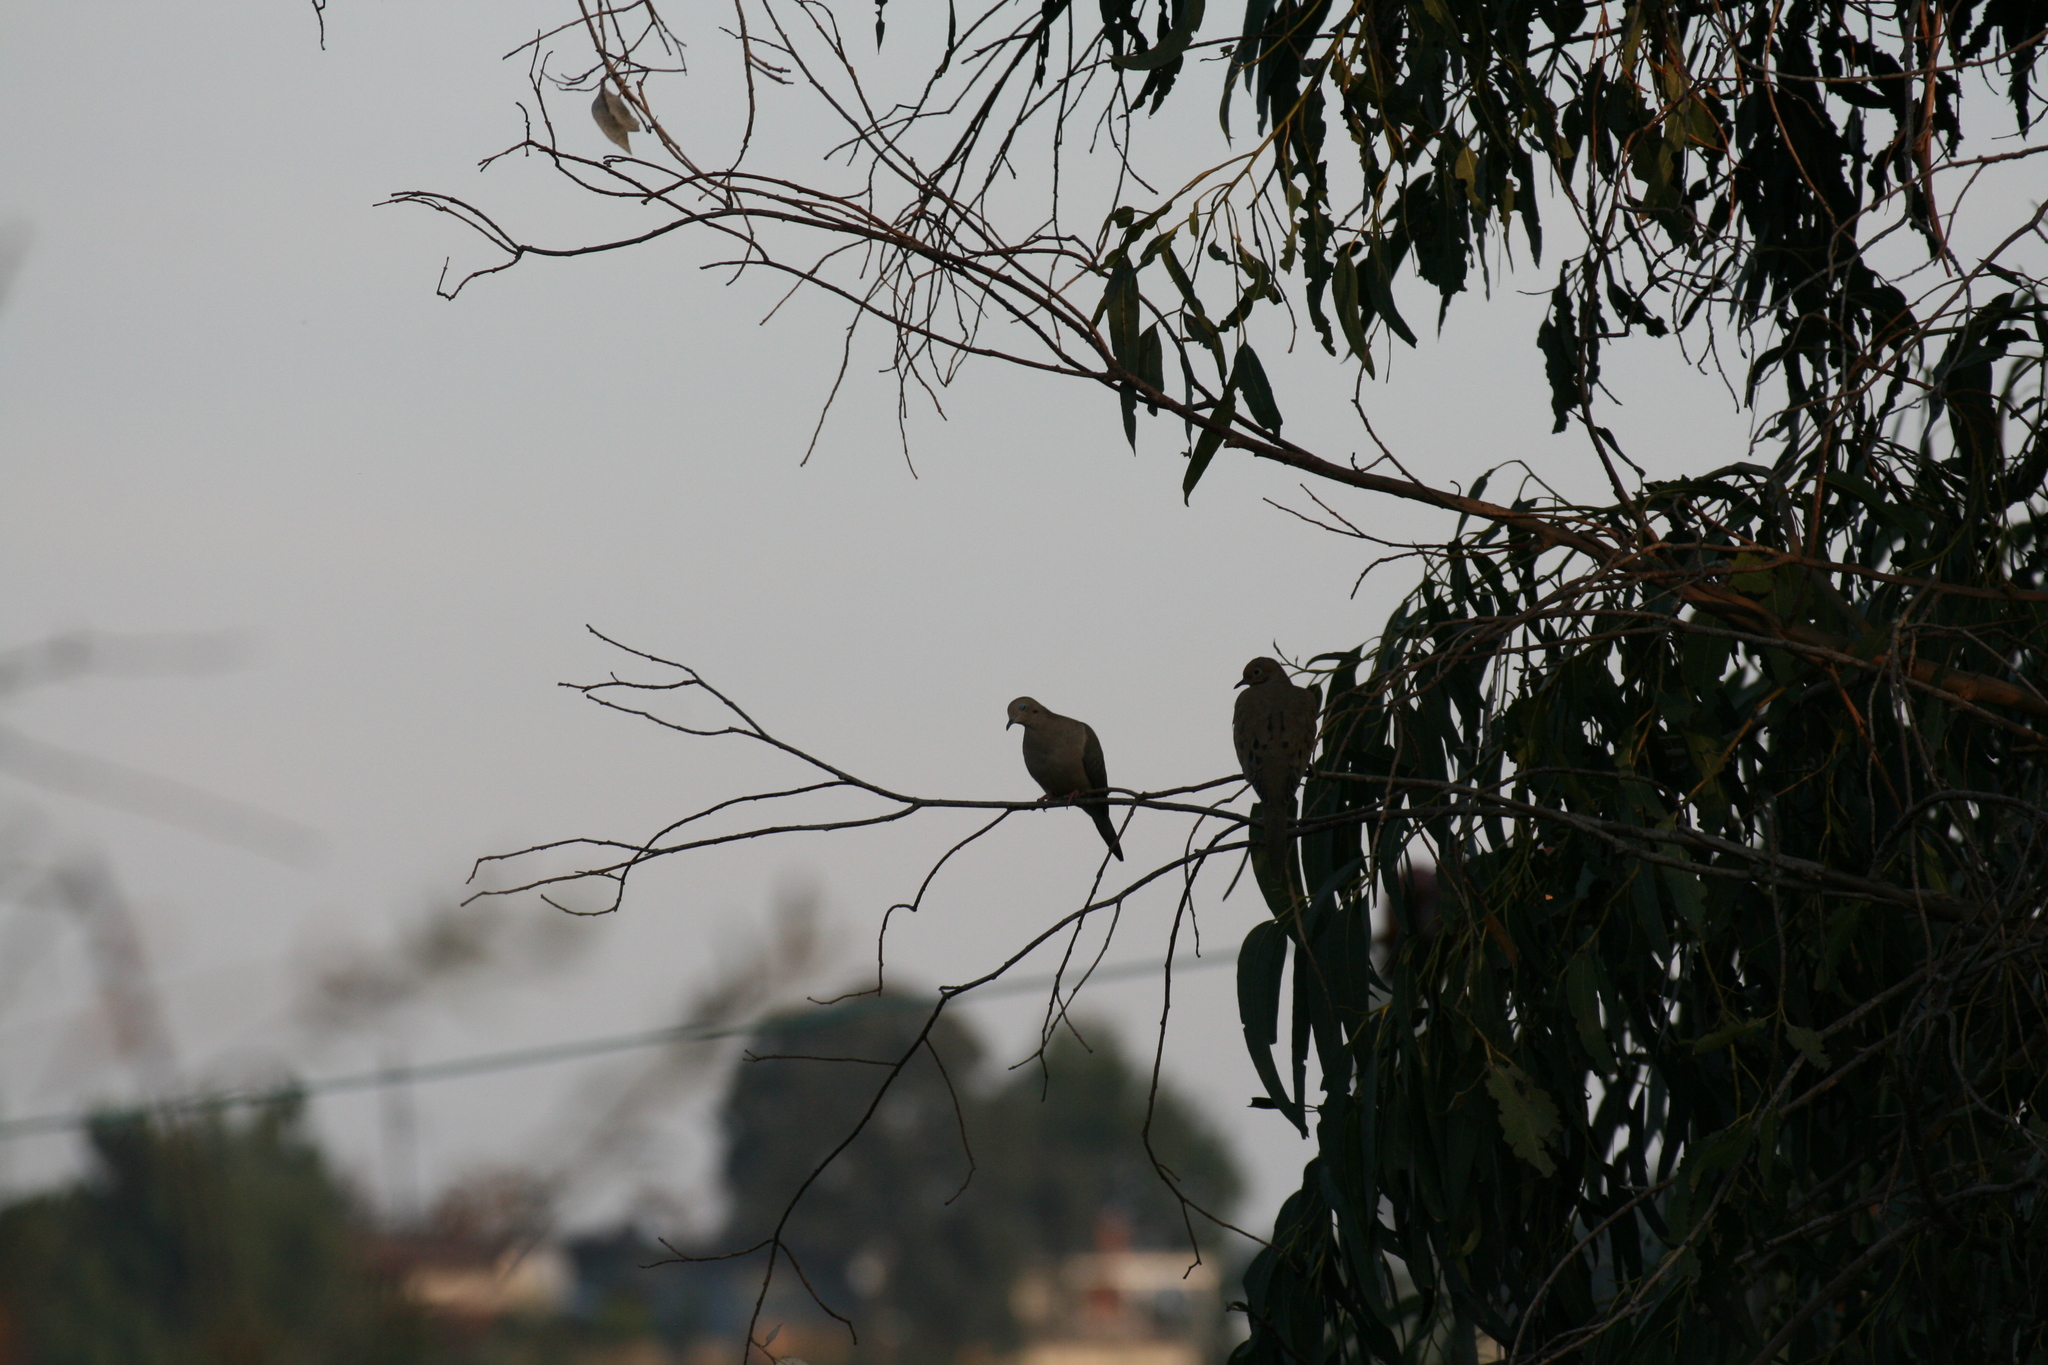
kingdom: Animalia
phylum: Chordata
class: Aves
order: Columbiformes
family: Columbidae
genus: Zenaida
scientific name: Zenaida macroura
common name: Mourning dove
